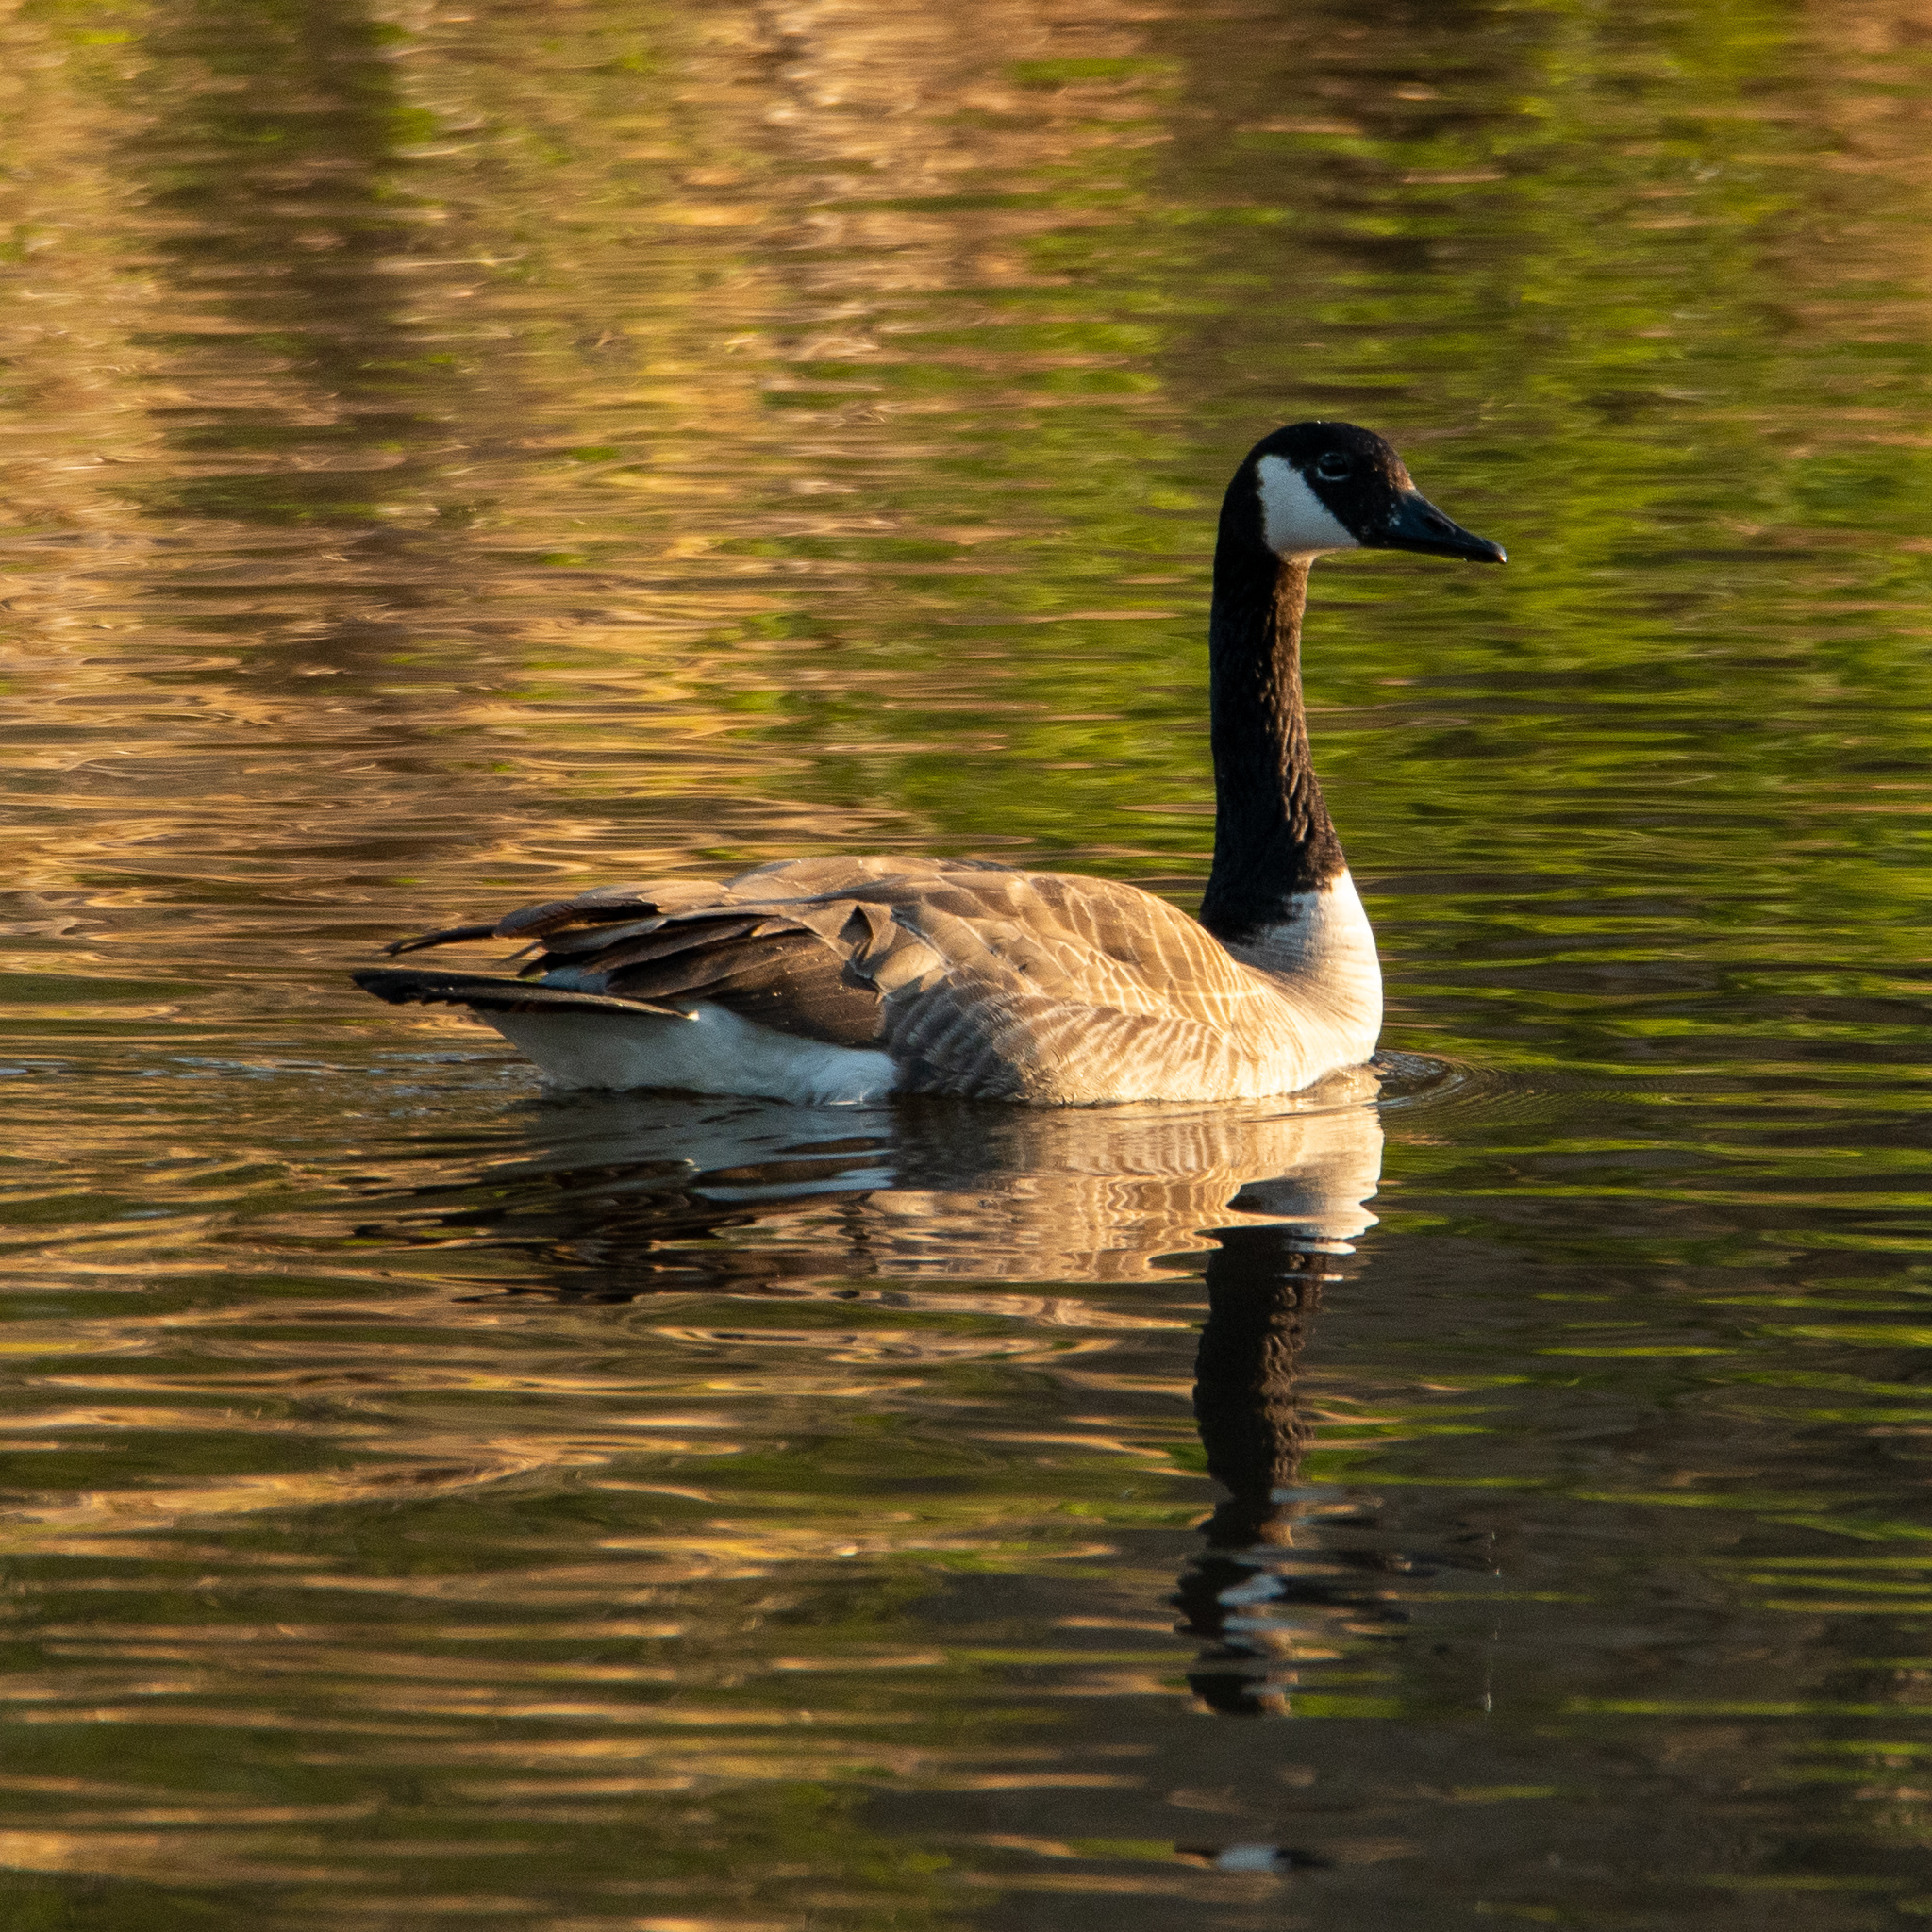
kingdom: Animalia
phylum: Chordata
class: Aves
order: Anseriformes
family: Anatidae
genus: Branta
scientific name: Branta canadensis
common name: Canada goose
